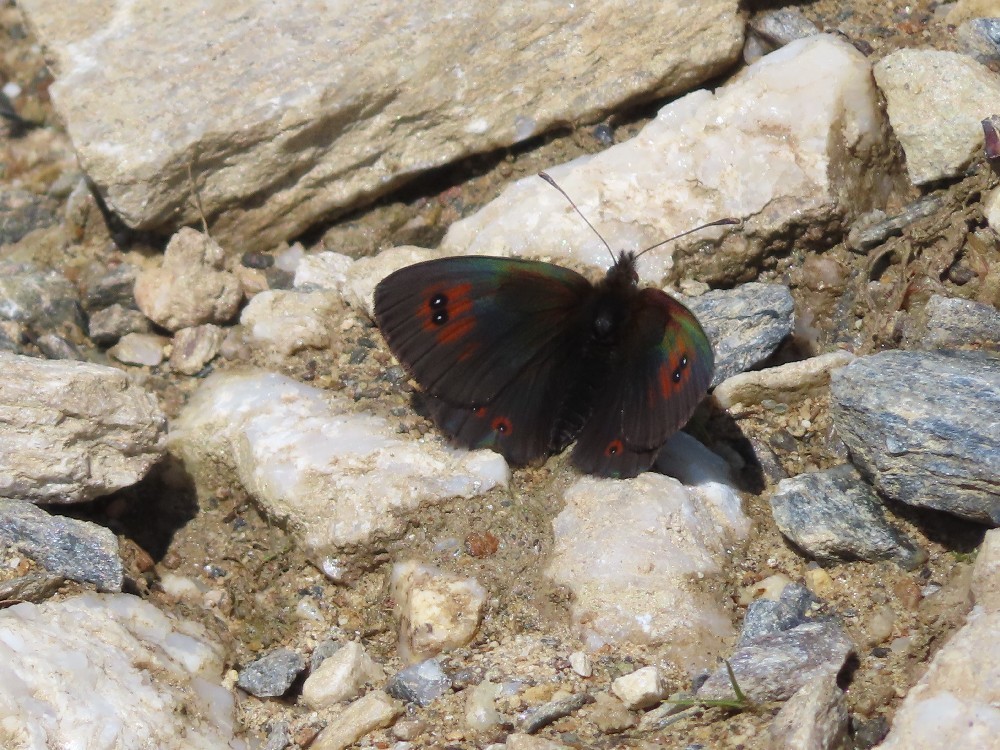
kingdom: Animalia
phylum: Arthropoda
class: Insecta
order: Lepidoptera
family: Nymphalidae
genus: Erebia
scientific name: Erebia cassioides
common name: Common brassy ringlet
